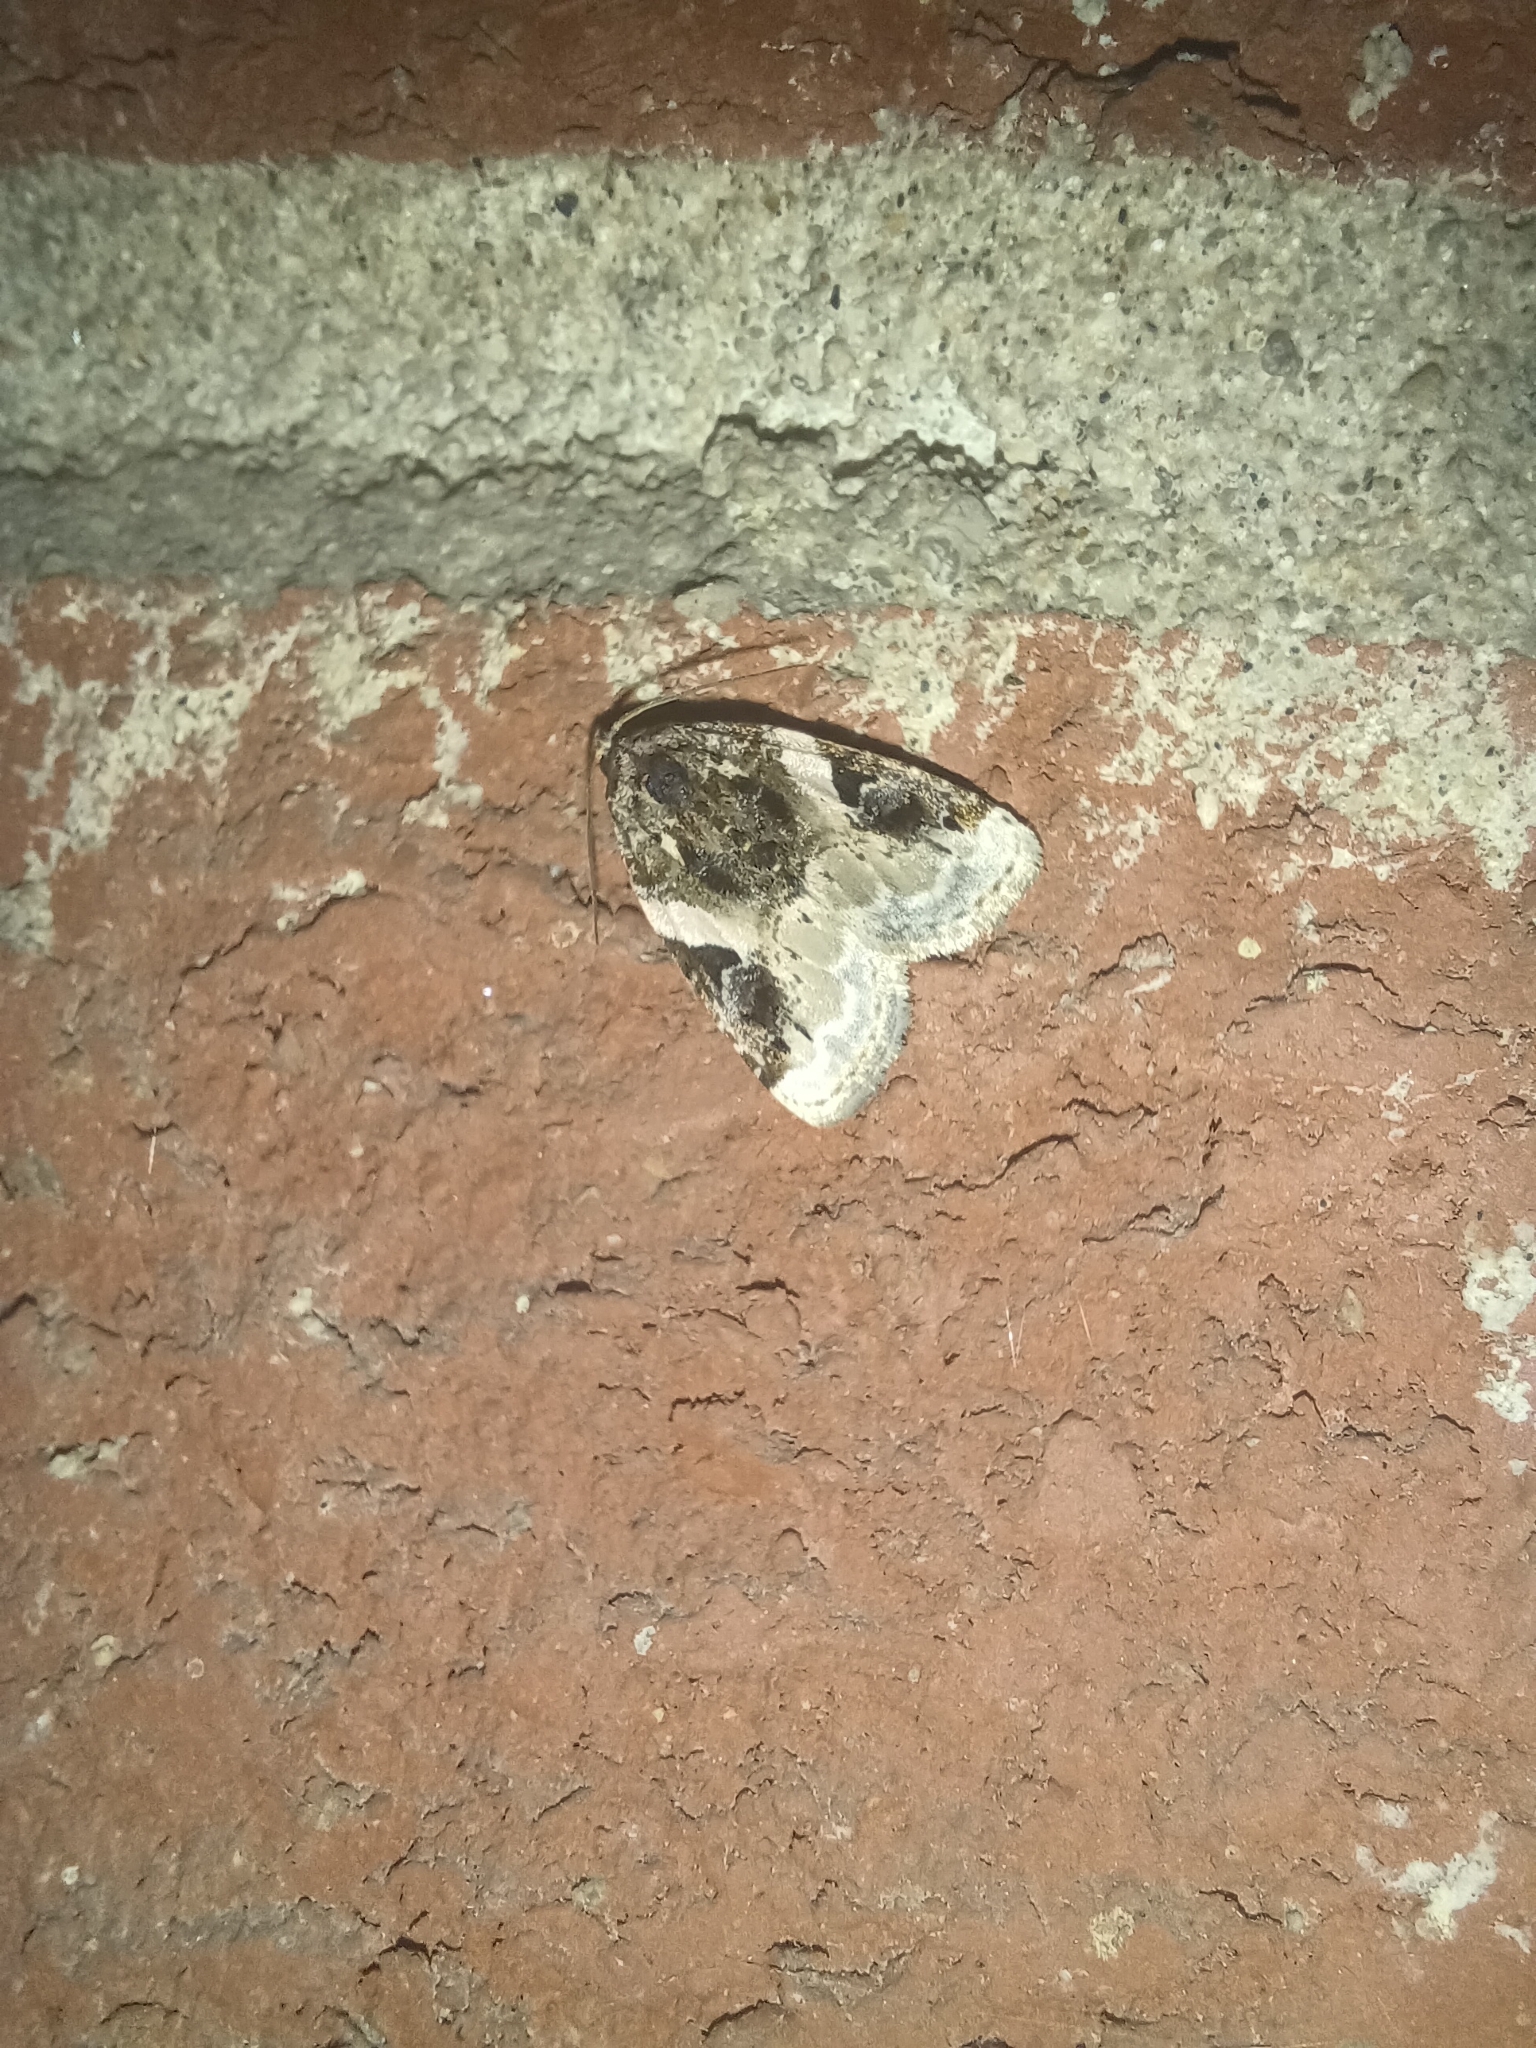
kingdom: Animalia
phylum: Arthropoda
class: Insecta
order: Lepidoptera
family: Noctuidae
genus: Pseudeustrotia
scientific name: Pseudeustrotia carneola
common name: Pink-barred lithacodia moth
